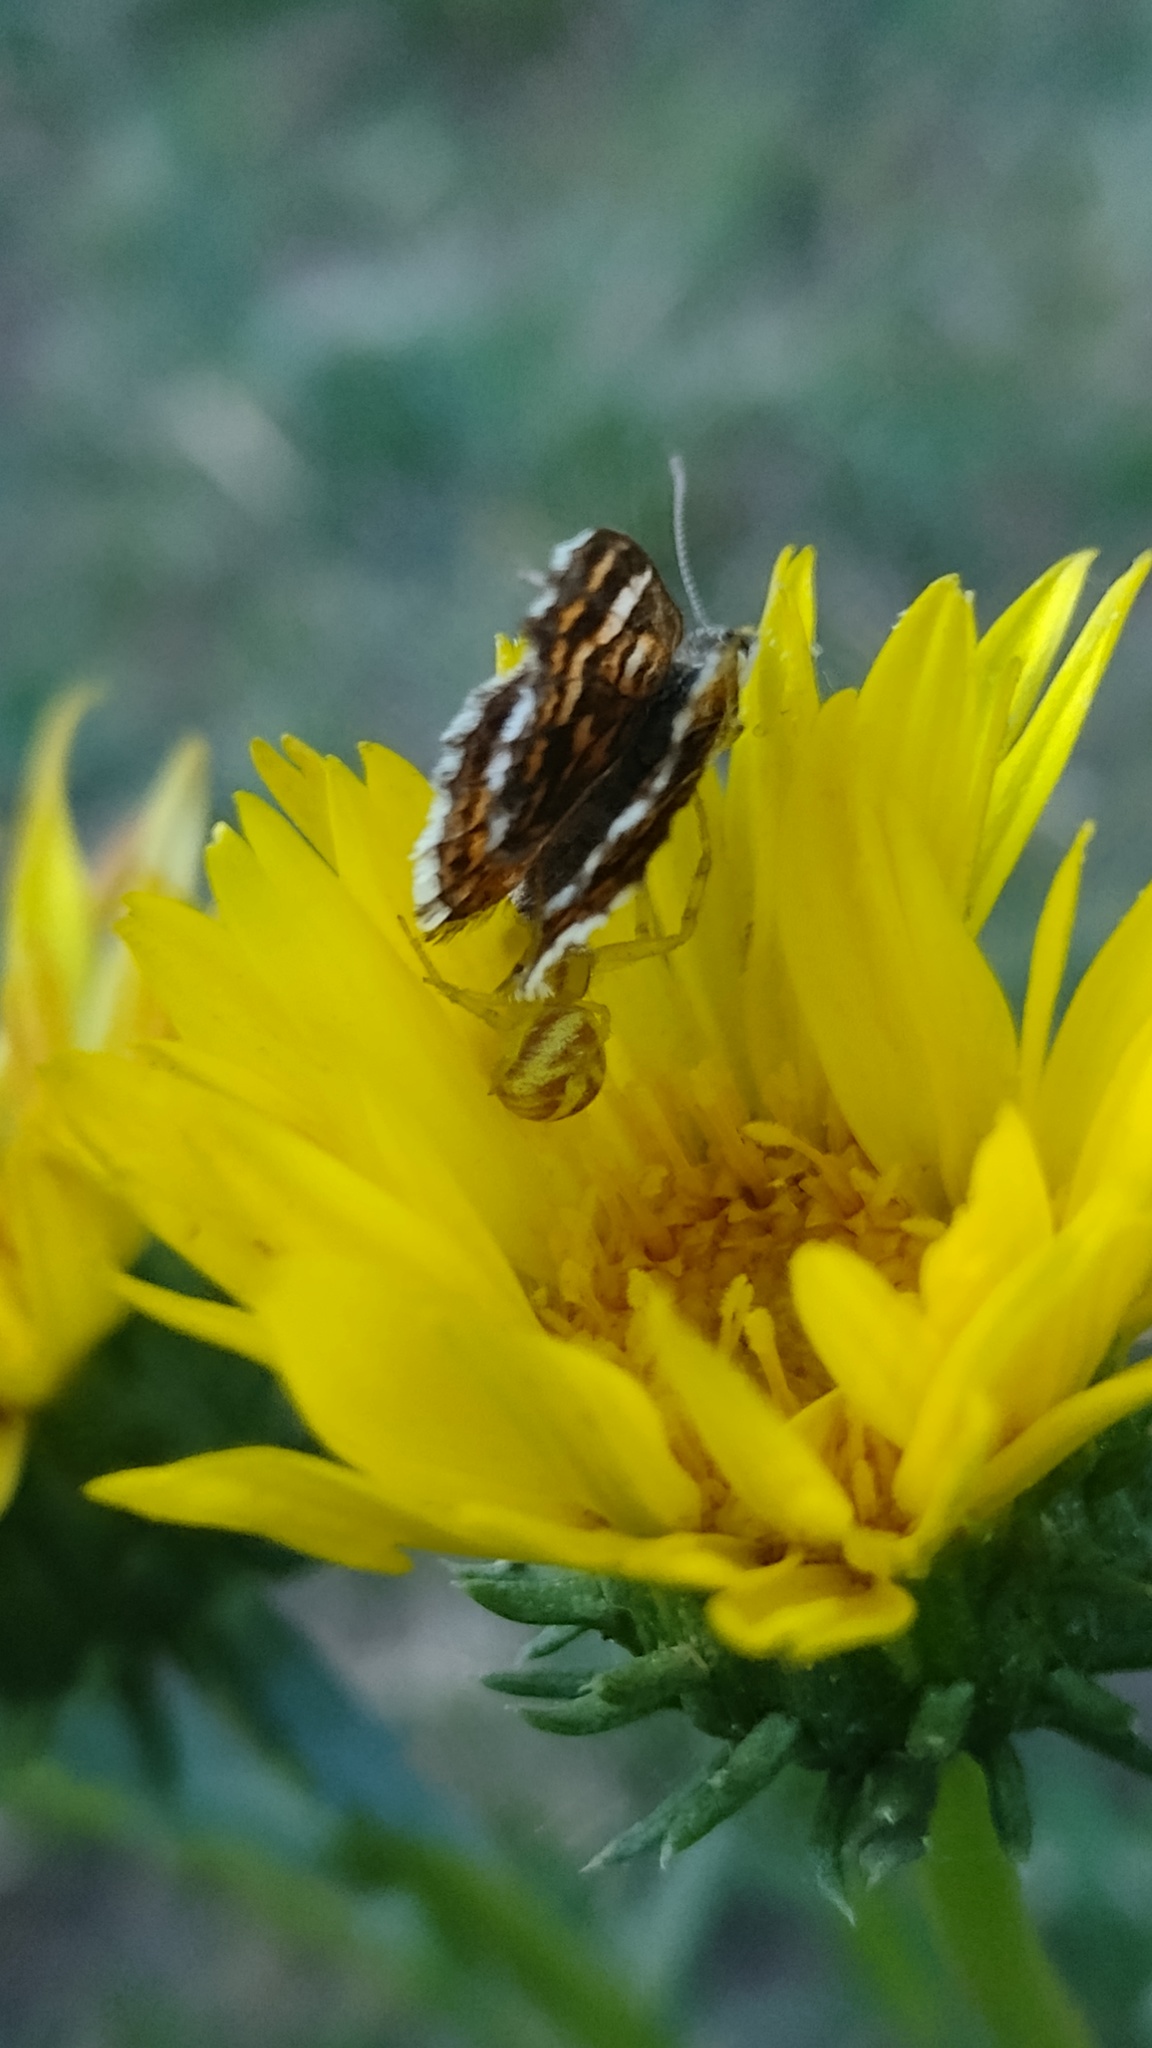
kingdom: Animalia
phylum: Arthropoda
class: Arachnida
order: Araneae
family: Thomisidae
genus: Misumenops
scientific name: Misumenops
